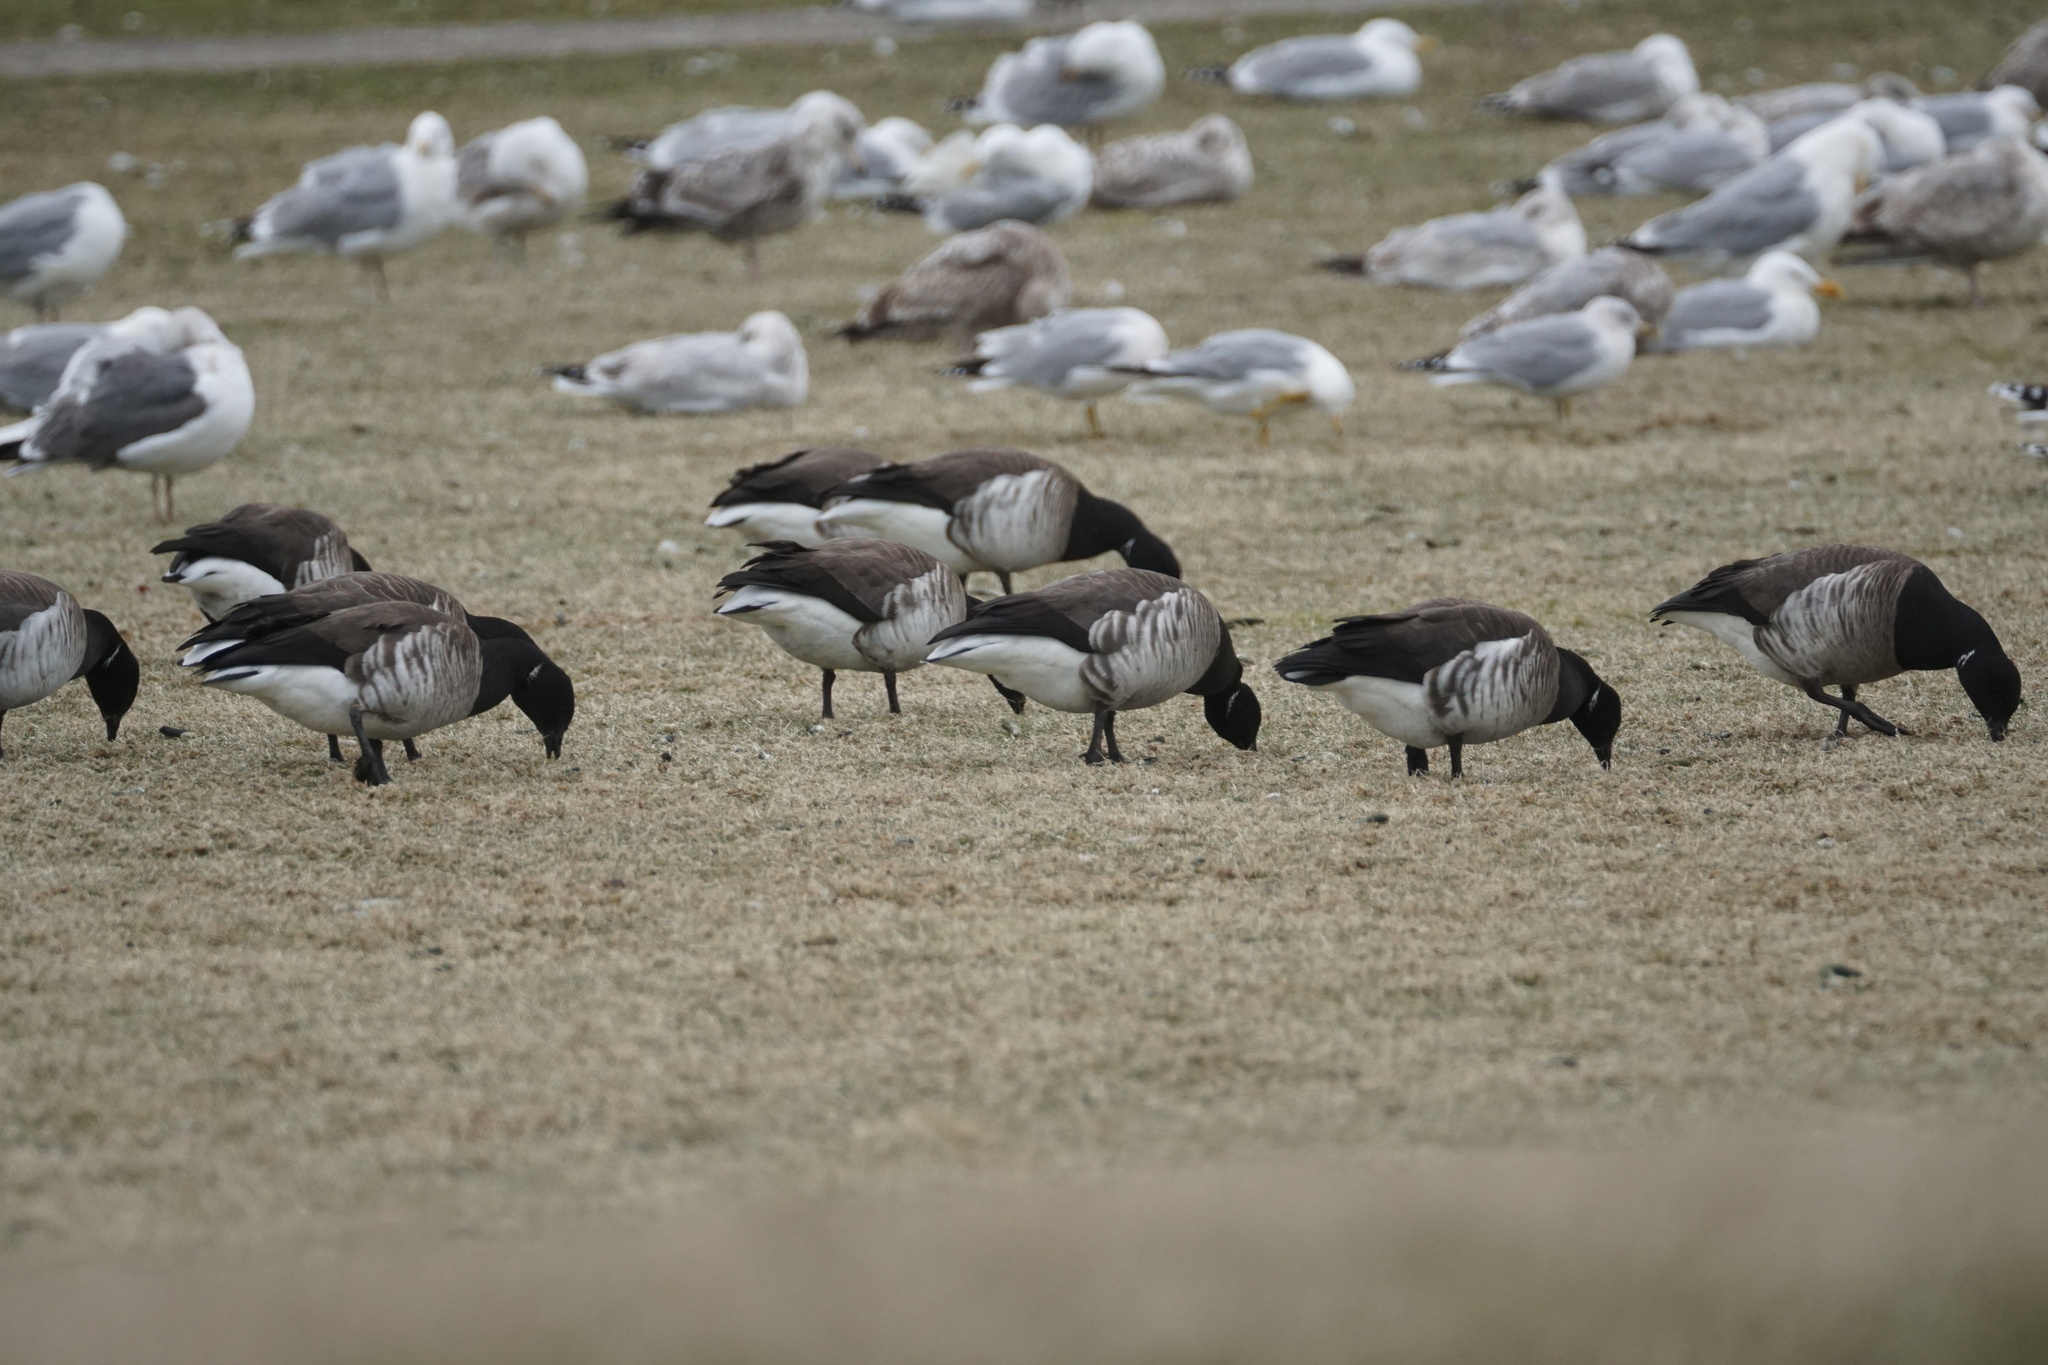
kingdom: Animalia
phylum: Chordata
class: Aves
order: Anseriformes
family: Anatidae
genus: Branta
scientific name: Branta bernicla
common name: Brant goose
